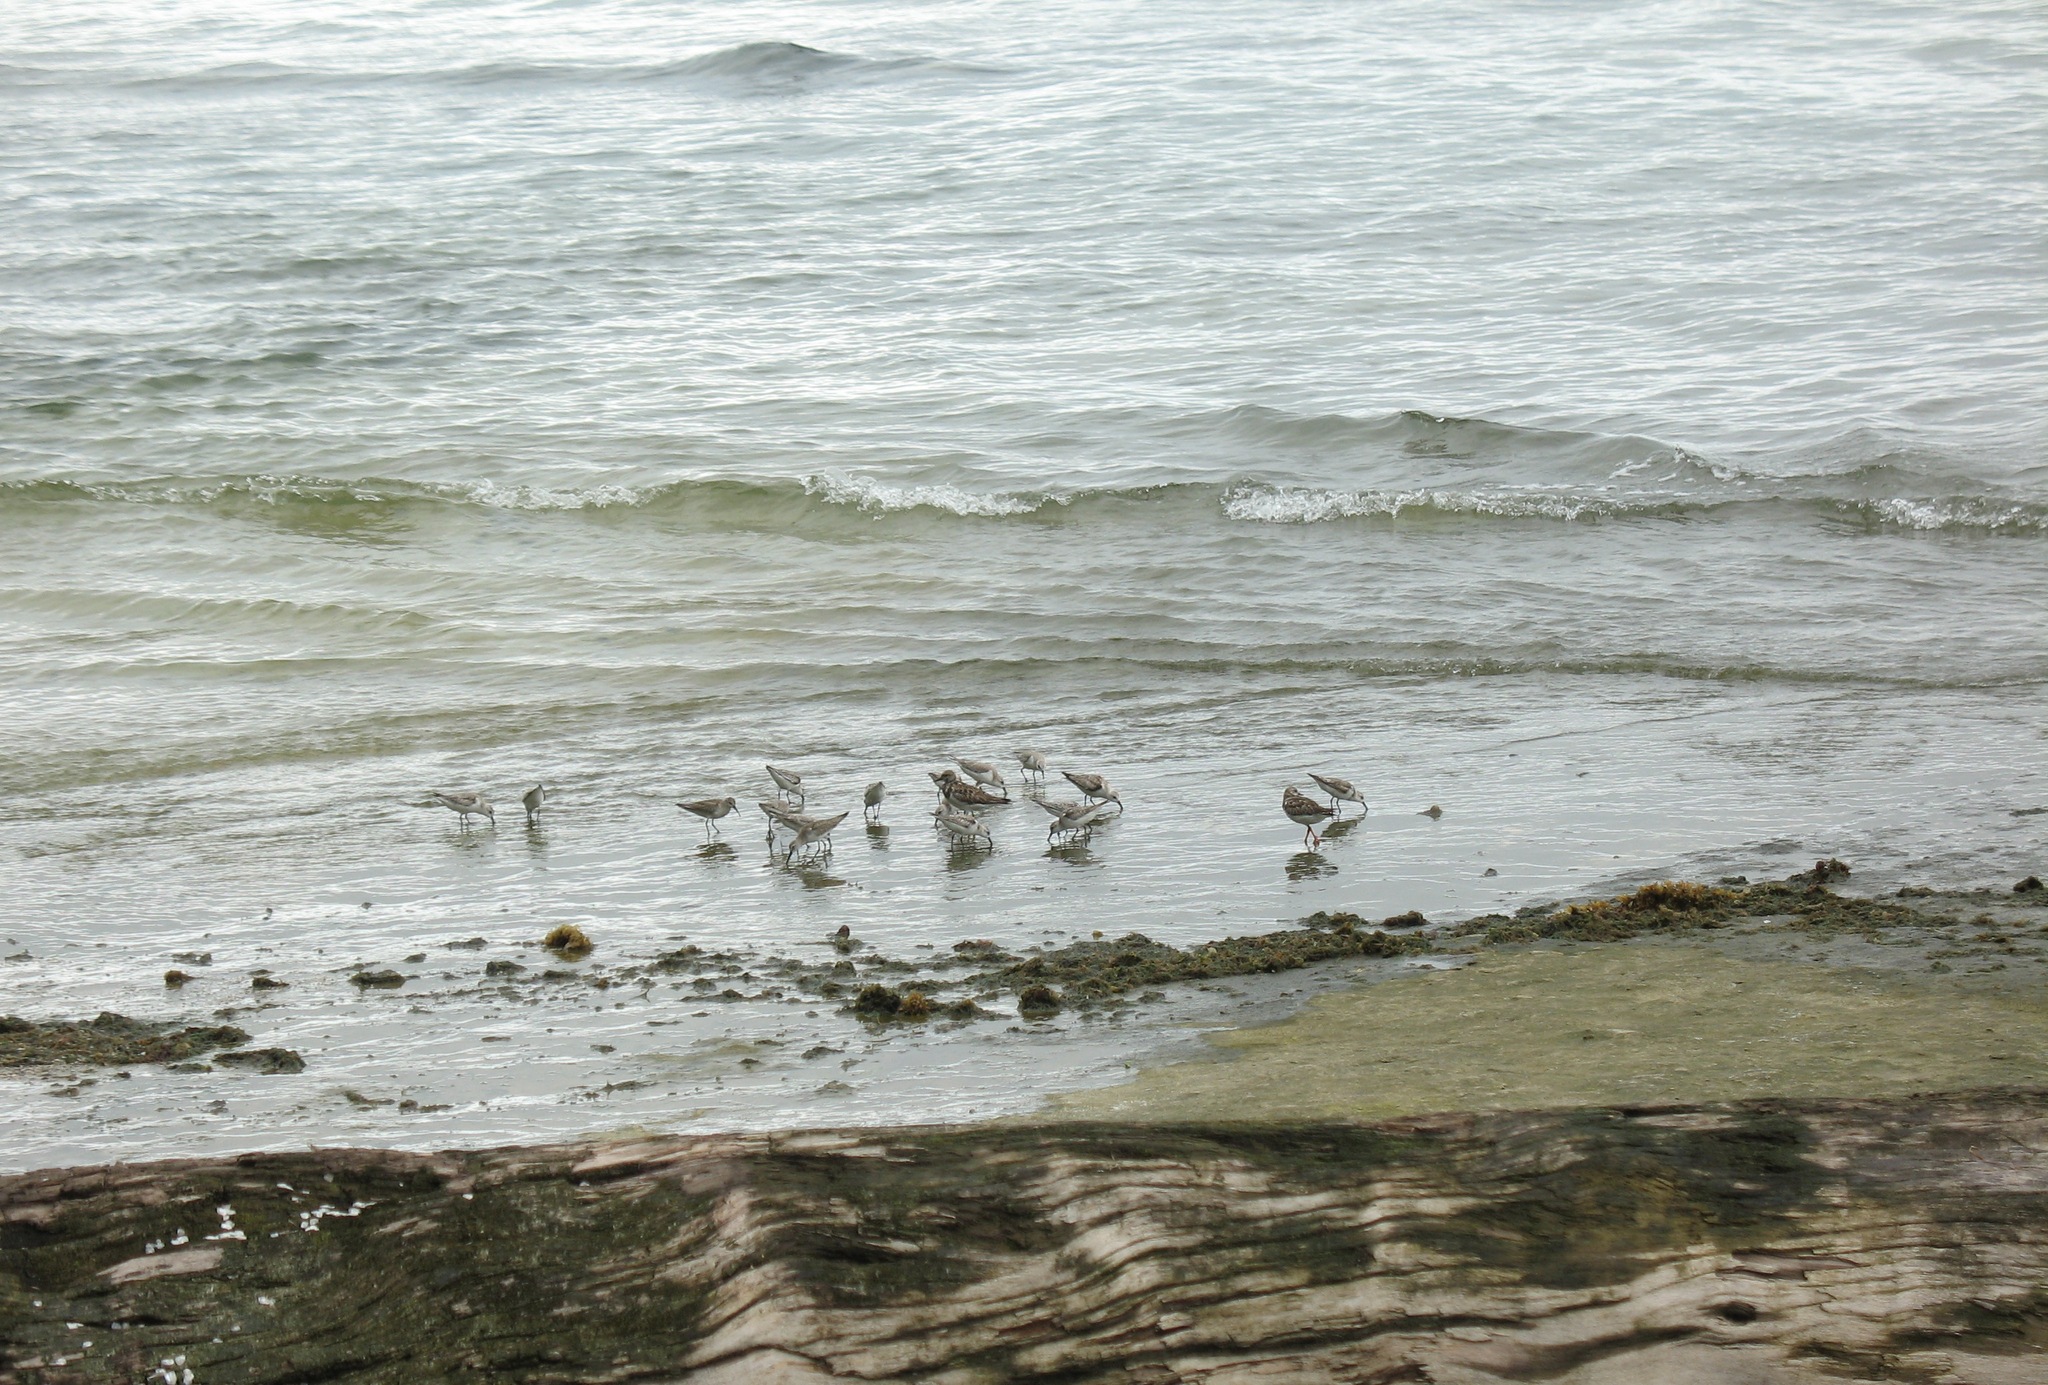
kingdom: Animalia
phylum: Chordata
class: Aves
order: Charadriiformes
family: Scolopacidae
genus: Calidris
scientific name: Calidris alba
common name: Sanderling
